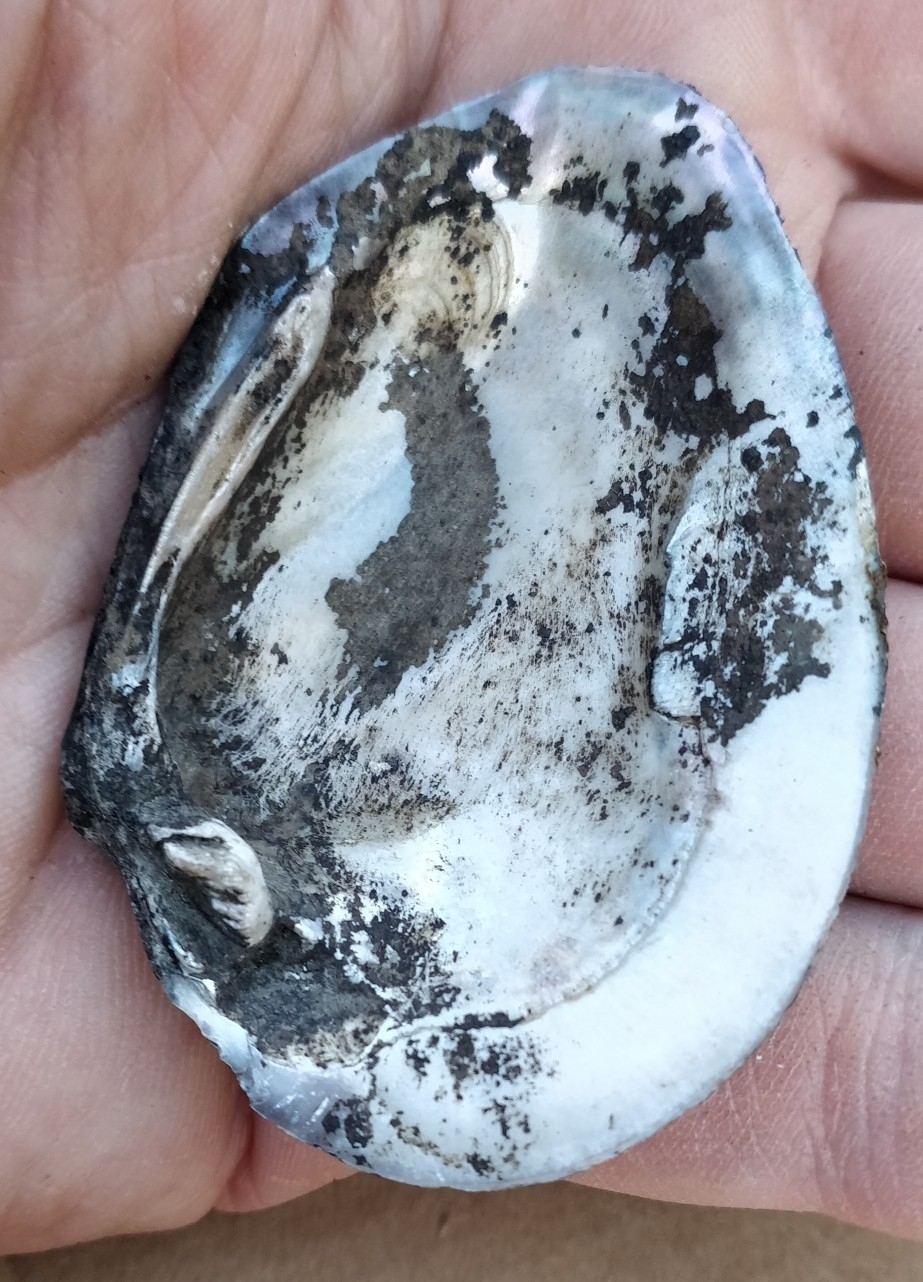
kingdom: Animalia
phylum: Mollusca
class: Bivalvia
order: Unionida
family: Unionidae
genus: Fusconaia
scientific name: Fusconaia flava
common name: Wabash pigtoe
